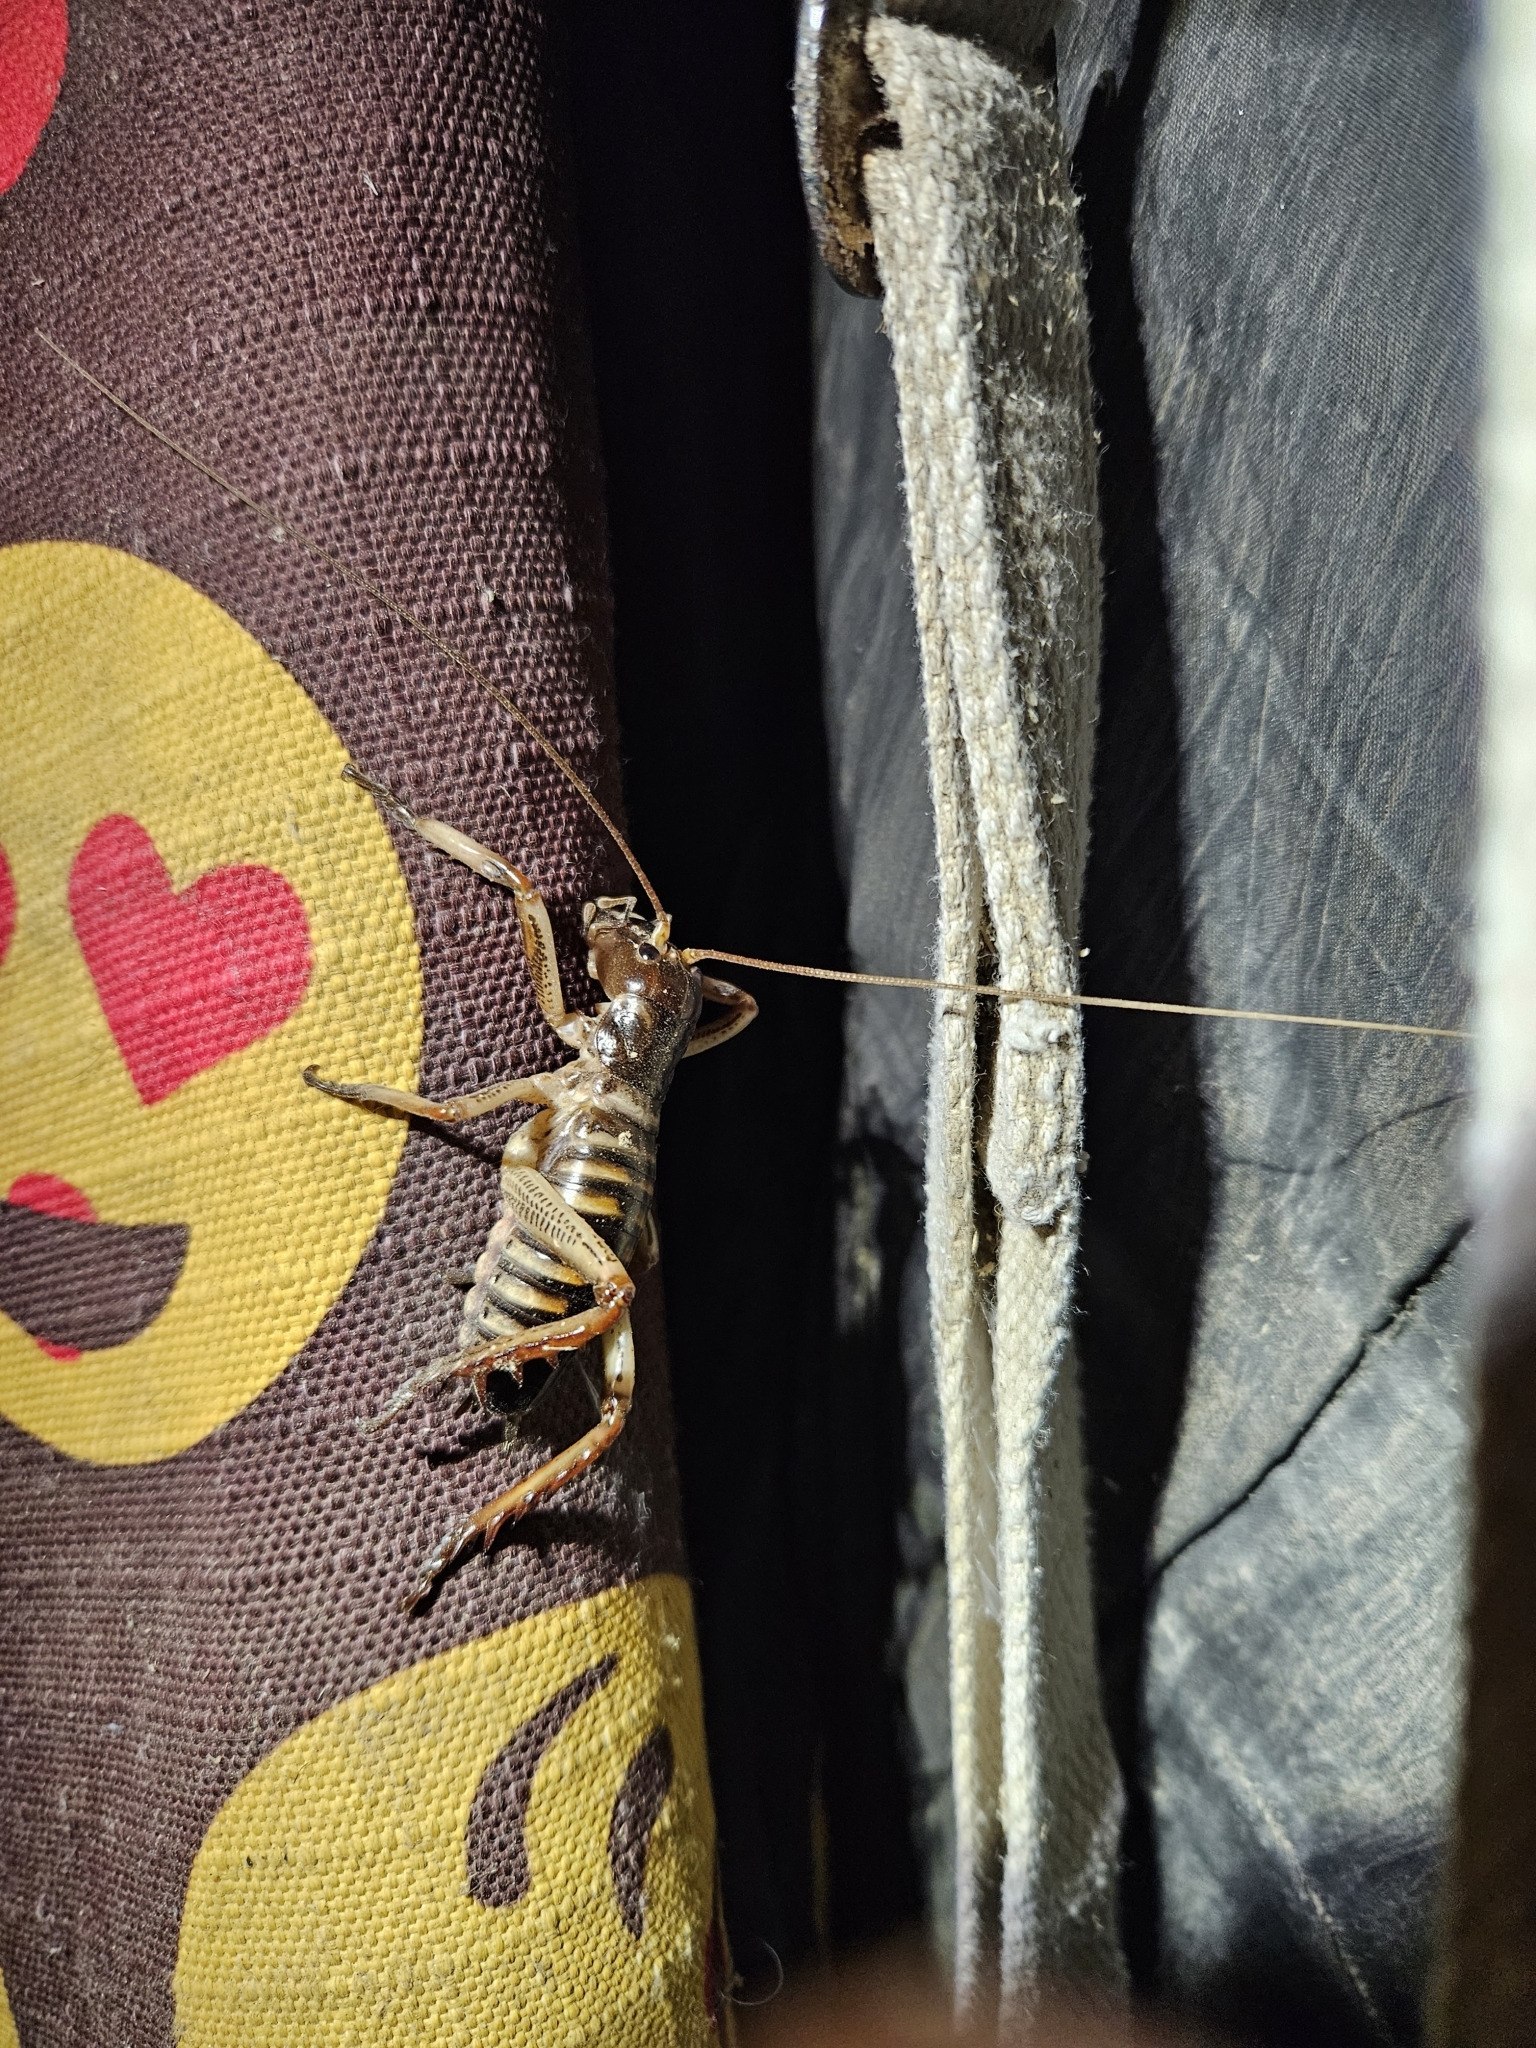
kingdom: Animalia
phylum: Arthropoda
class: Insecta
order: Orthoptera
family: Anostostomatidae
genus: Hemideina
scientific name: Hemideina crassidens
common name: Wellington tree weta
